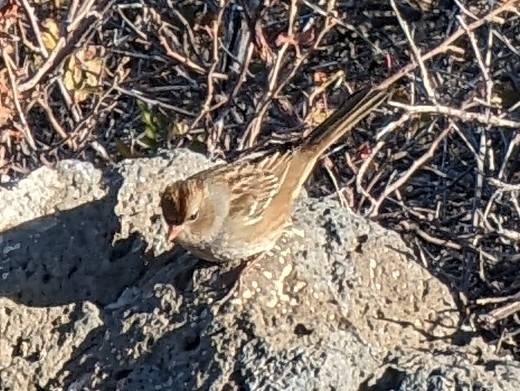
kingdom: Animalia
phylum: Chordata
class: Aves
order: Passeriformes
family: Passerellidae
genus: Zonotrichia
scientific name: Zonotrichia leucophrys
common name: White-crowned sparrow
